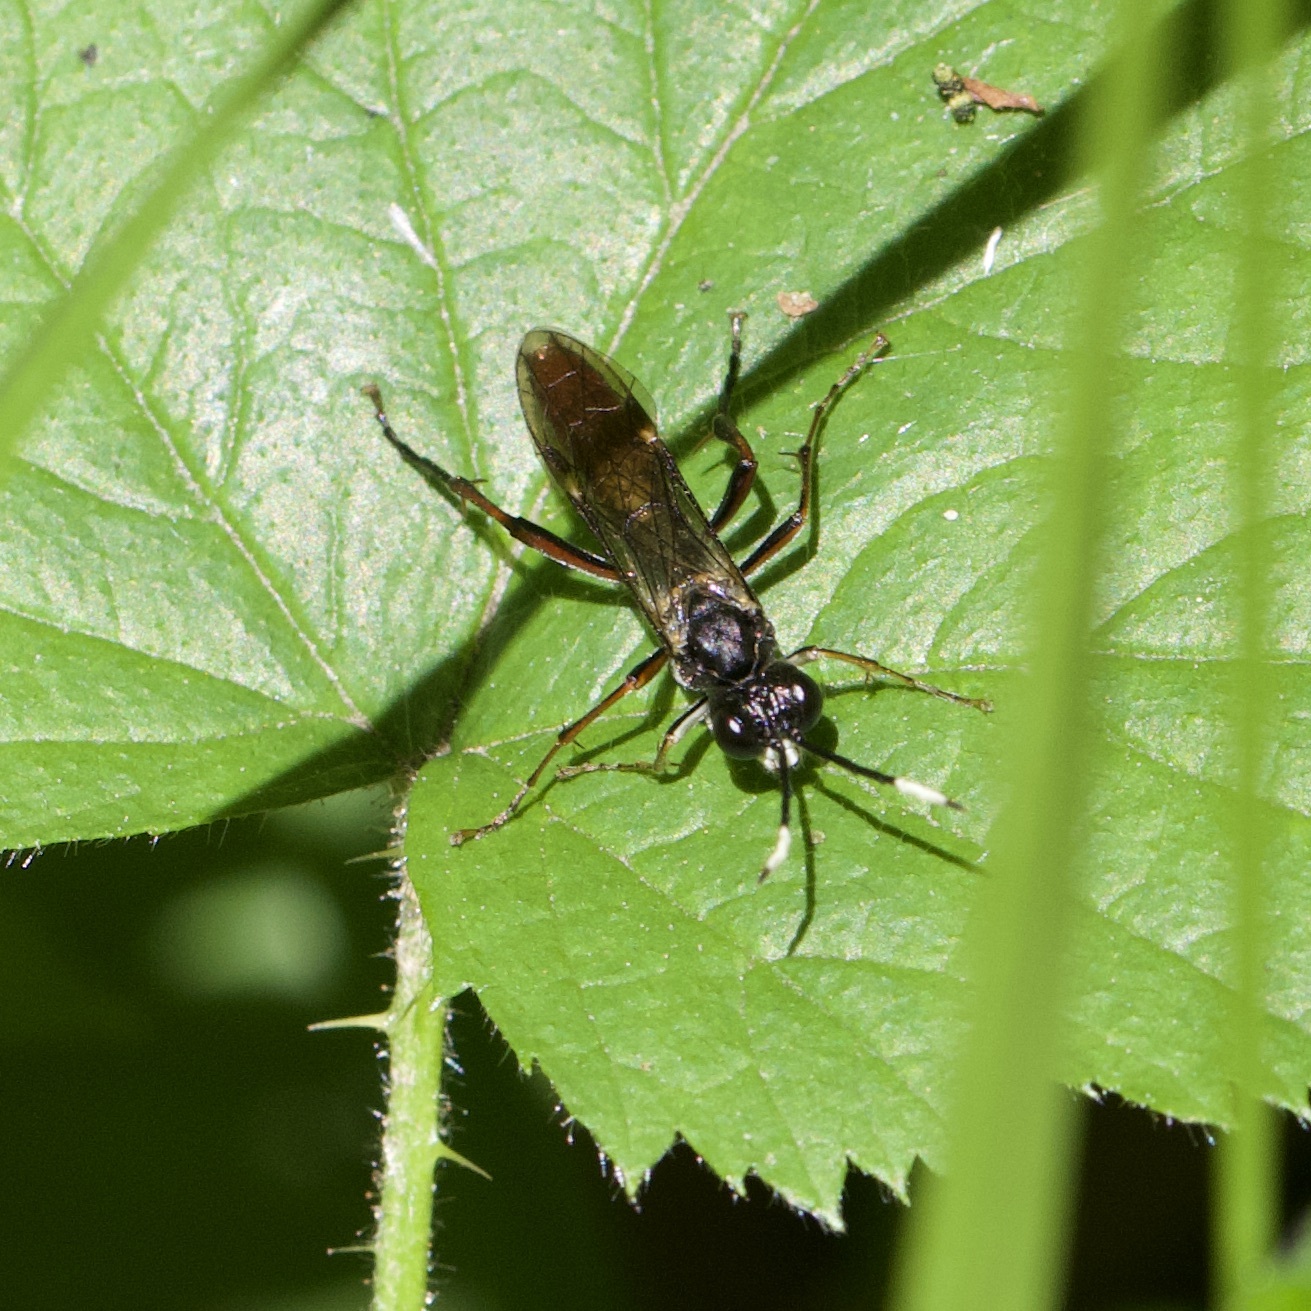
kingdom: Animalia
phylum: Arthropoda
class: Insecta
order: Hymenoptera
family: Tenthredinidae
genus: Tenthredo
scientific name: Tenthredo livida
